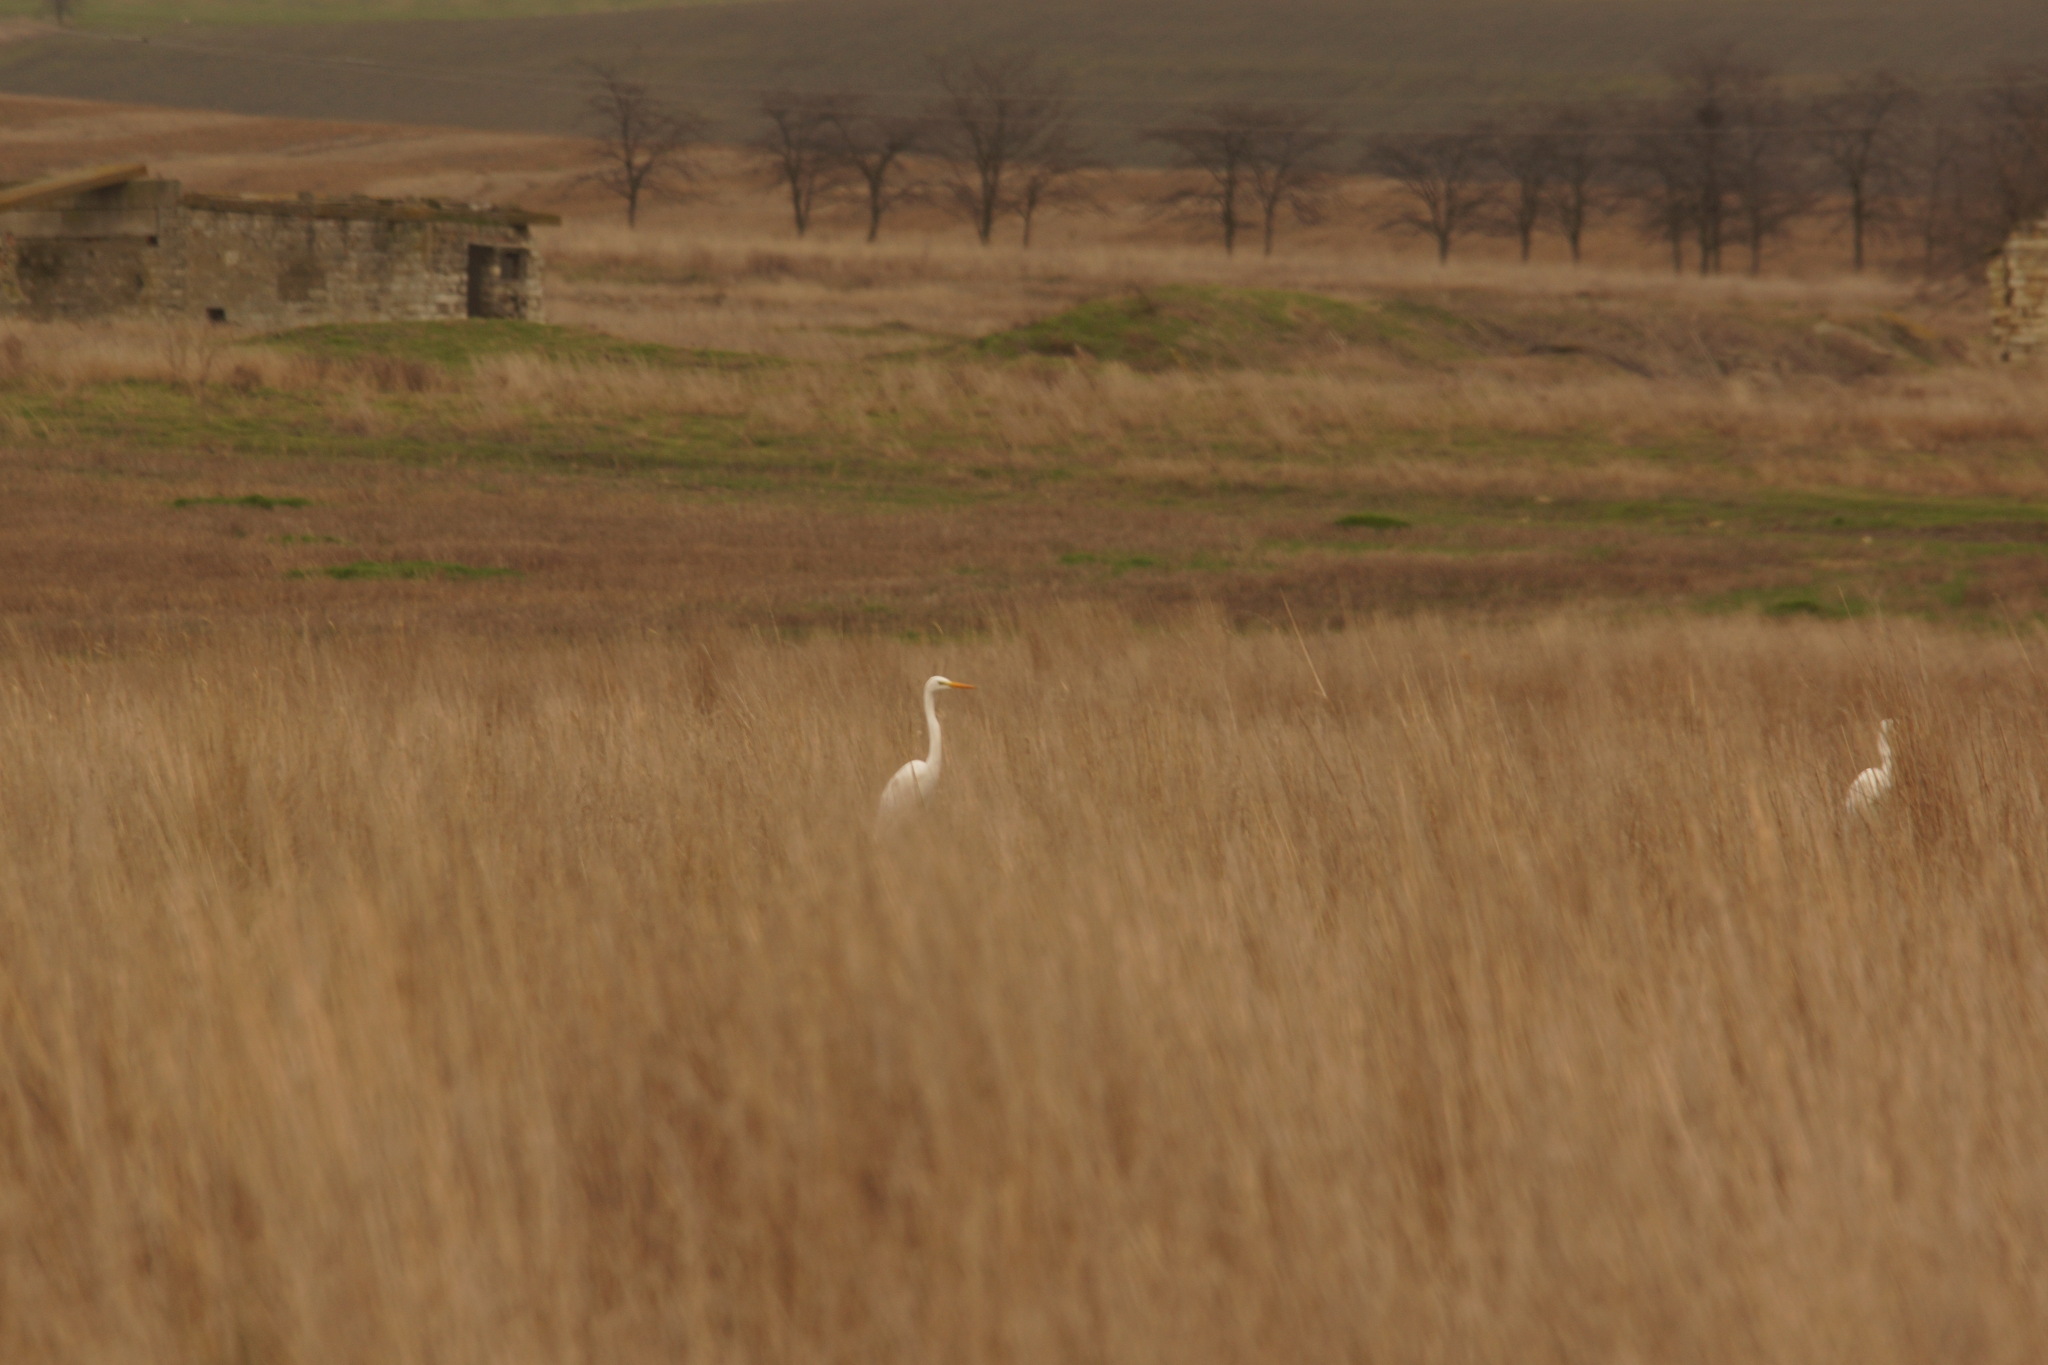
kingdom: Animalia
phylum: Chordata
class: Aves
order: Pelecaniformes
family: Ardeidae
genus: Ardea
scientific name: Ardea alba
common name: Great egret
